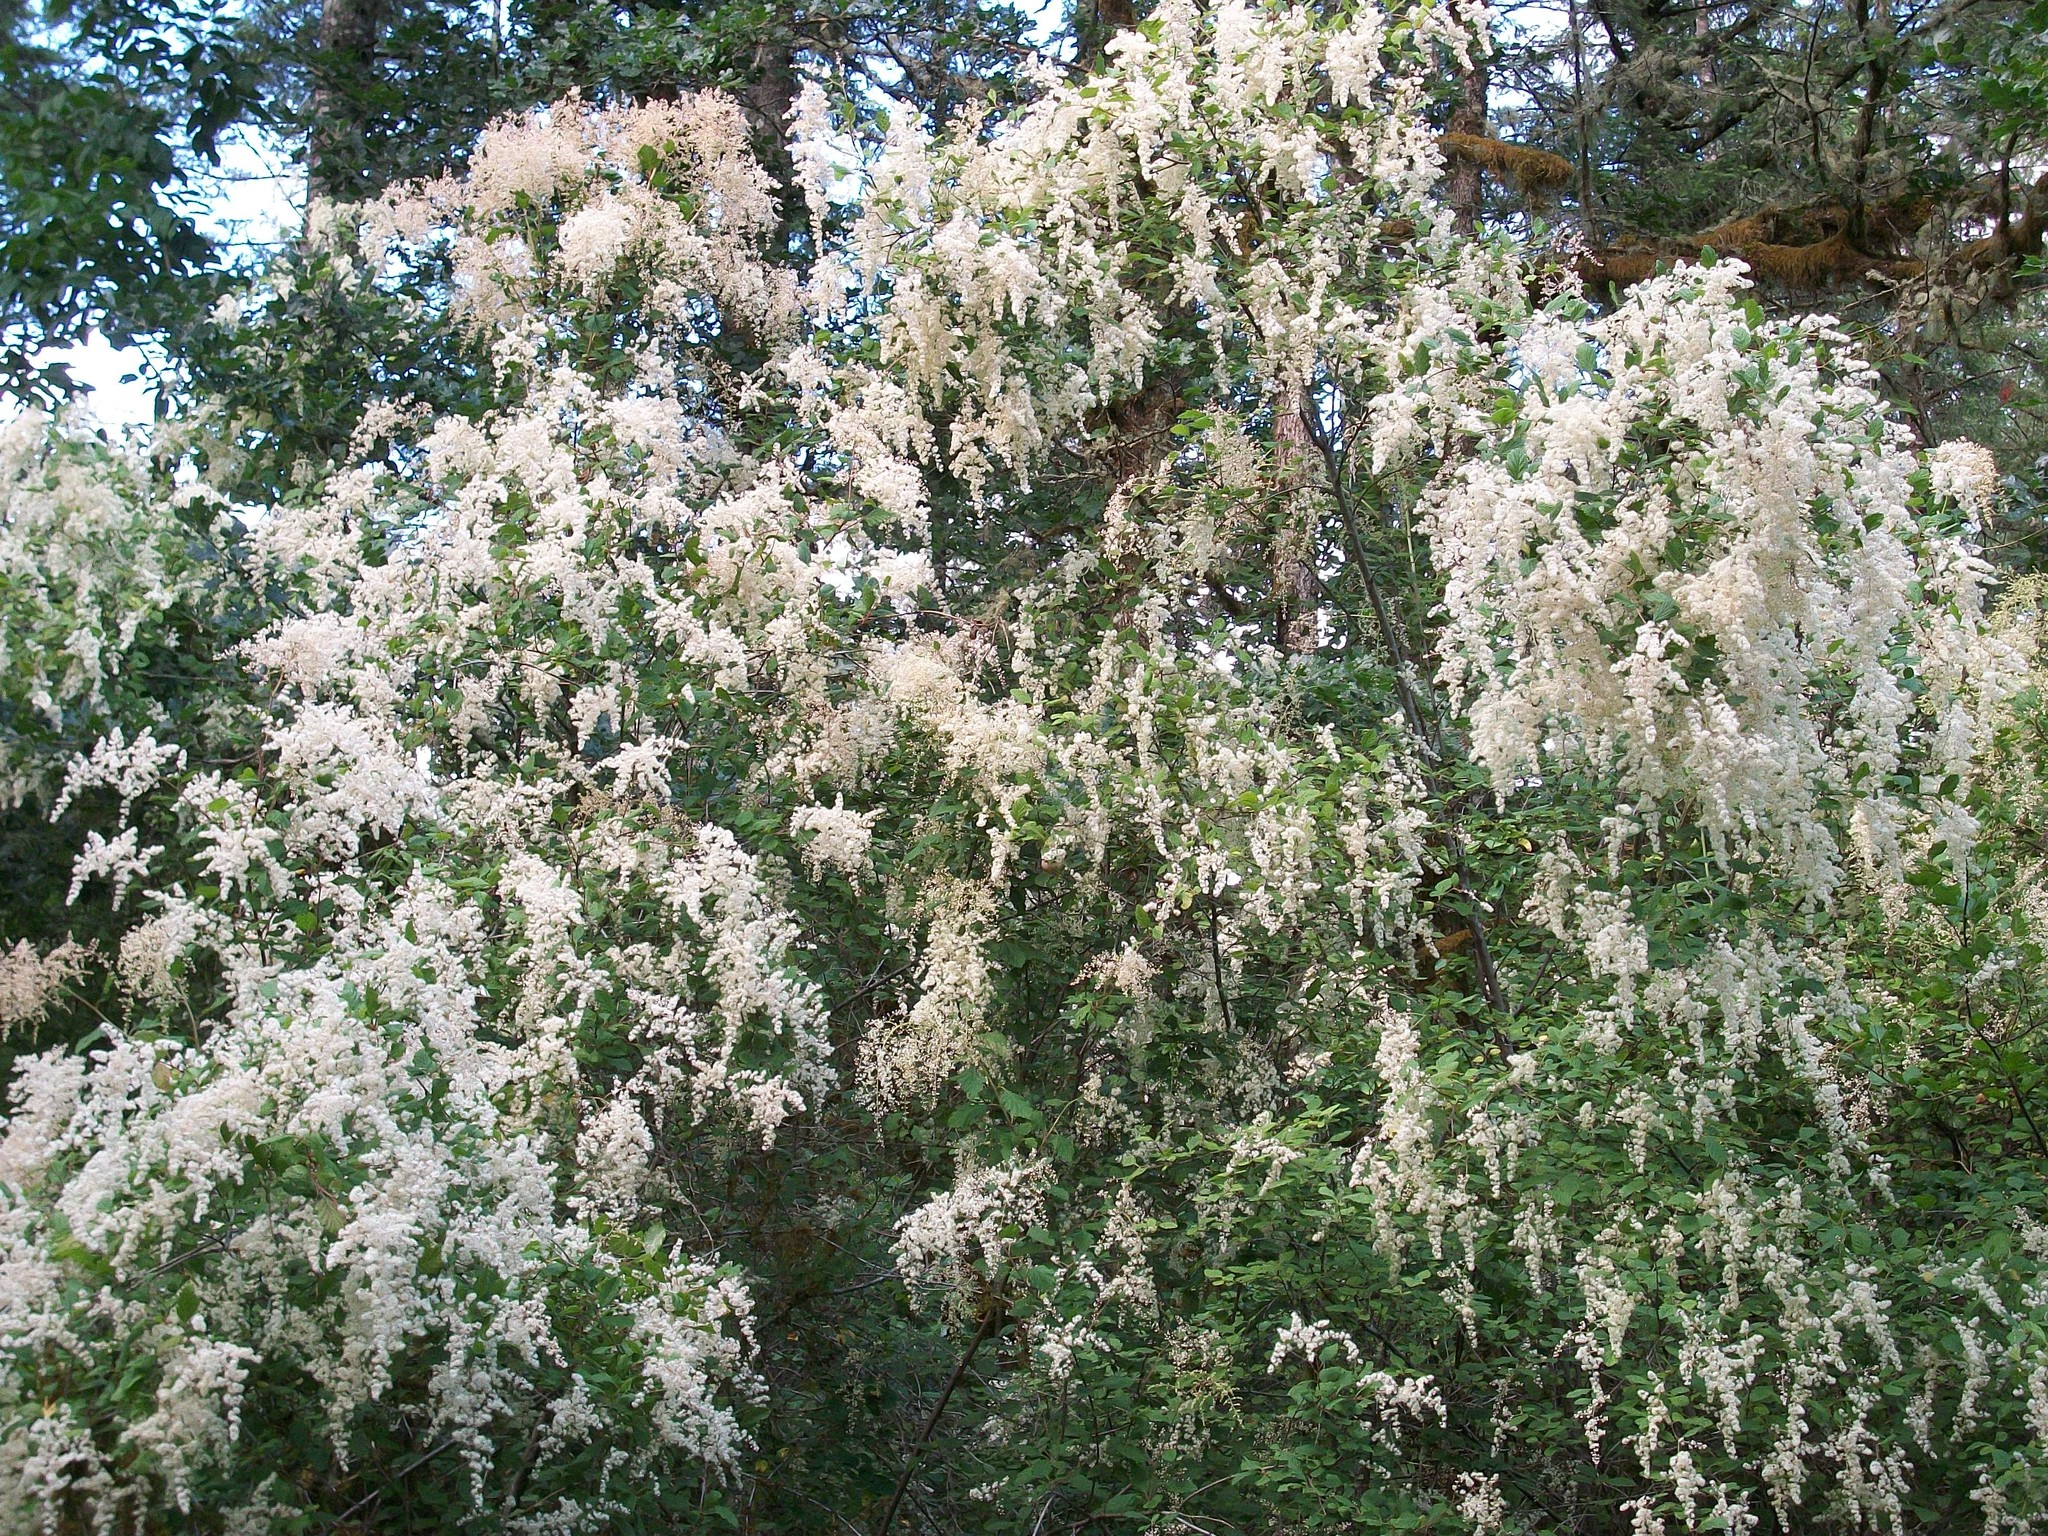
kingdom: Plantae
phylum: Tracheophyta
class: Magnoliopsida
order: Rosales
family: Rosaceae
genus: Holodiscus
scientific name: Holodiscus discolor
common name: Oceanspray
